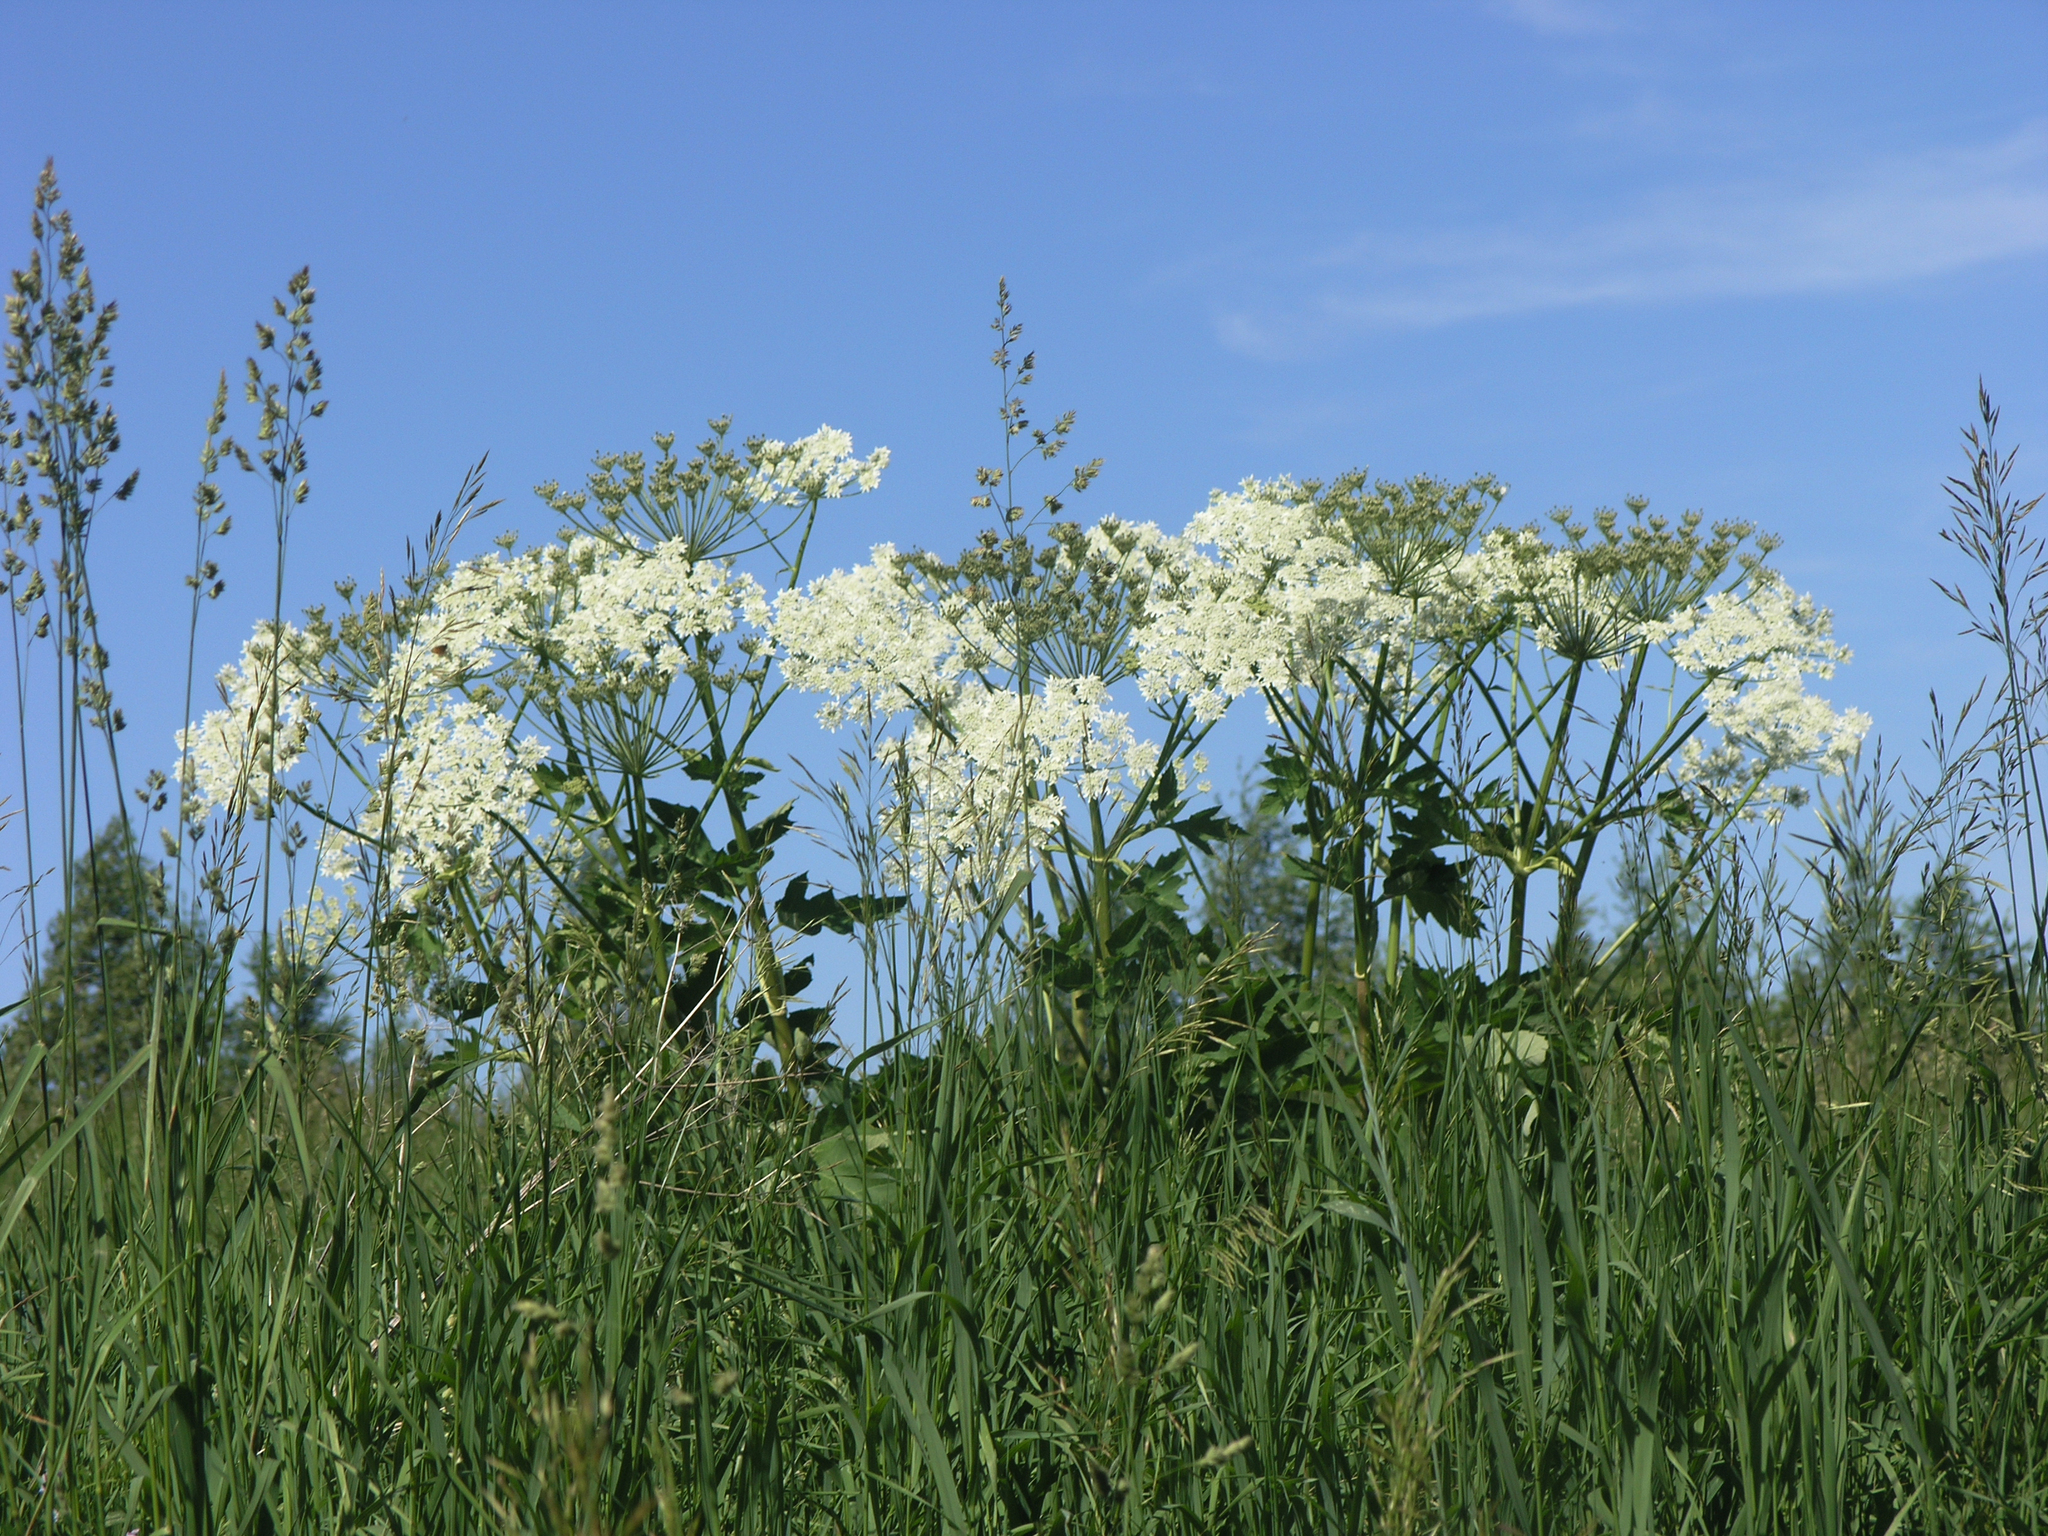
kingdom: Plantae
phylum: Tracheophyta
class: Magnoliopsida
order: Apiales
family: Apiaceae
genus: Heracleum
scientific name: Heracleum dissectum
